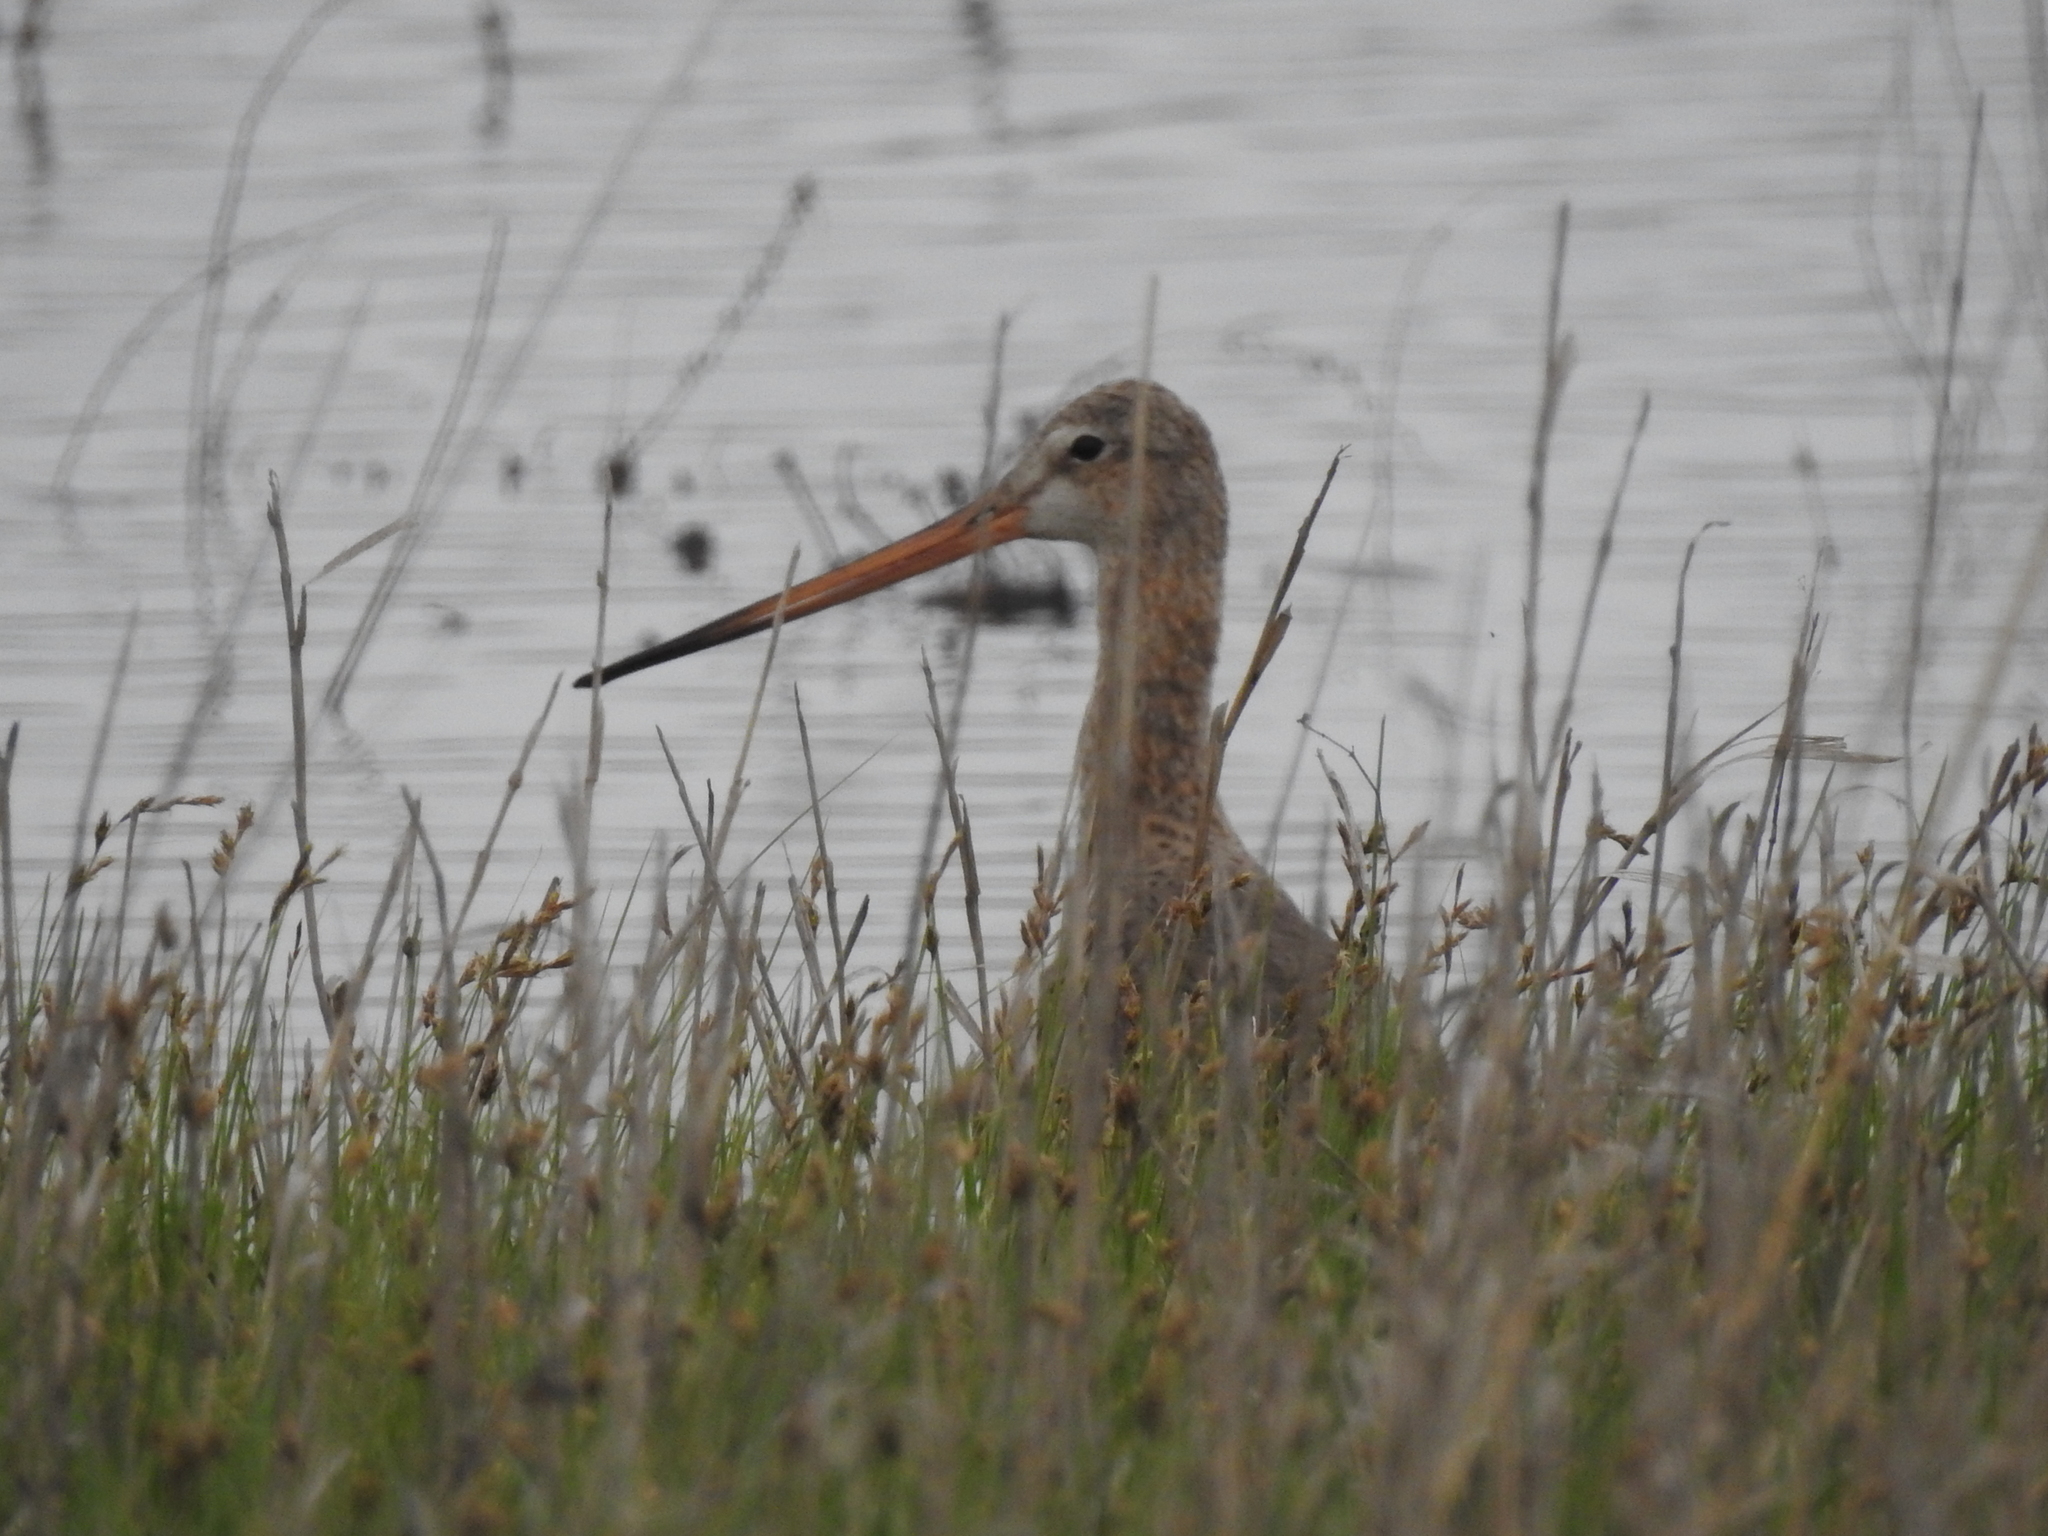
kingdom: Animalia
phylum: Chordata
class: Aves
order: Charadriiformes
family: Scolopacidae
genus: Limosa
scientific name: Limosa limosa
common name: Black-tailed godwit
